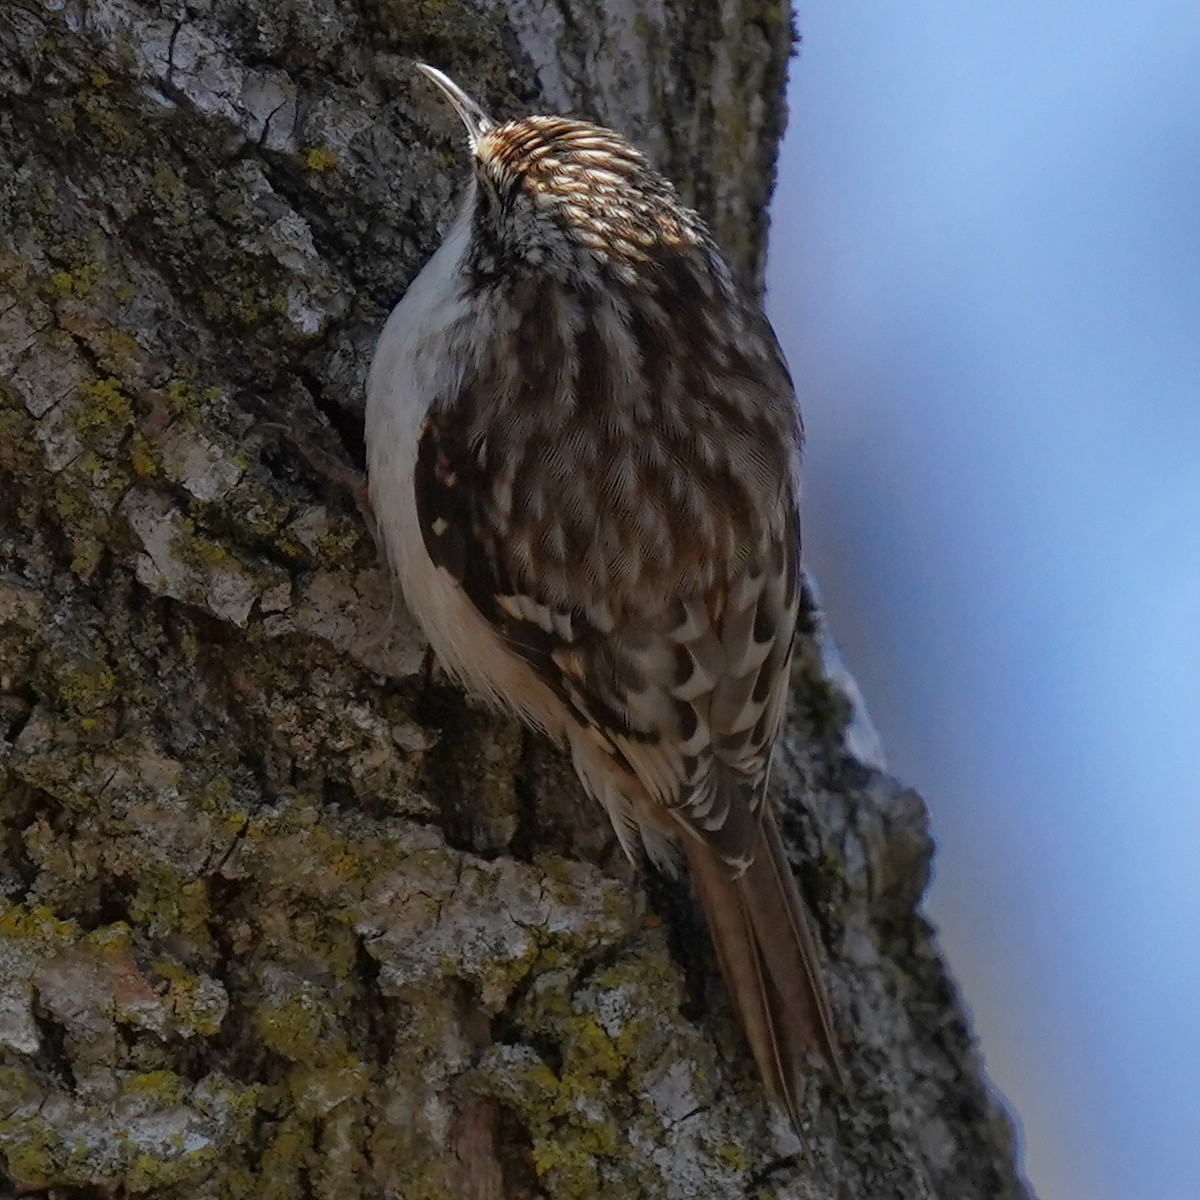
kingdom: Animalia
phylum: Chordata
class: Aves
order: Passeriformes
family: Certhiidae
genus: Certhia
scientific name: Certhia americana
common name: Brown creeper
